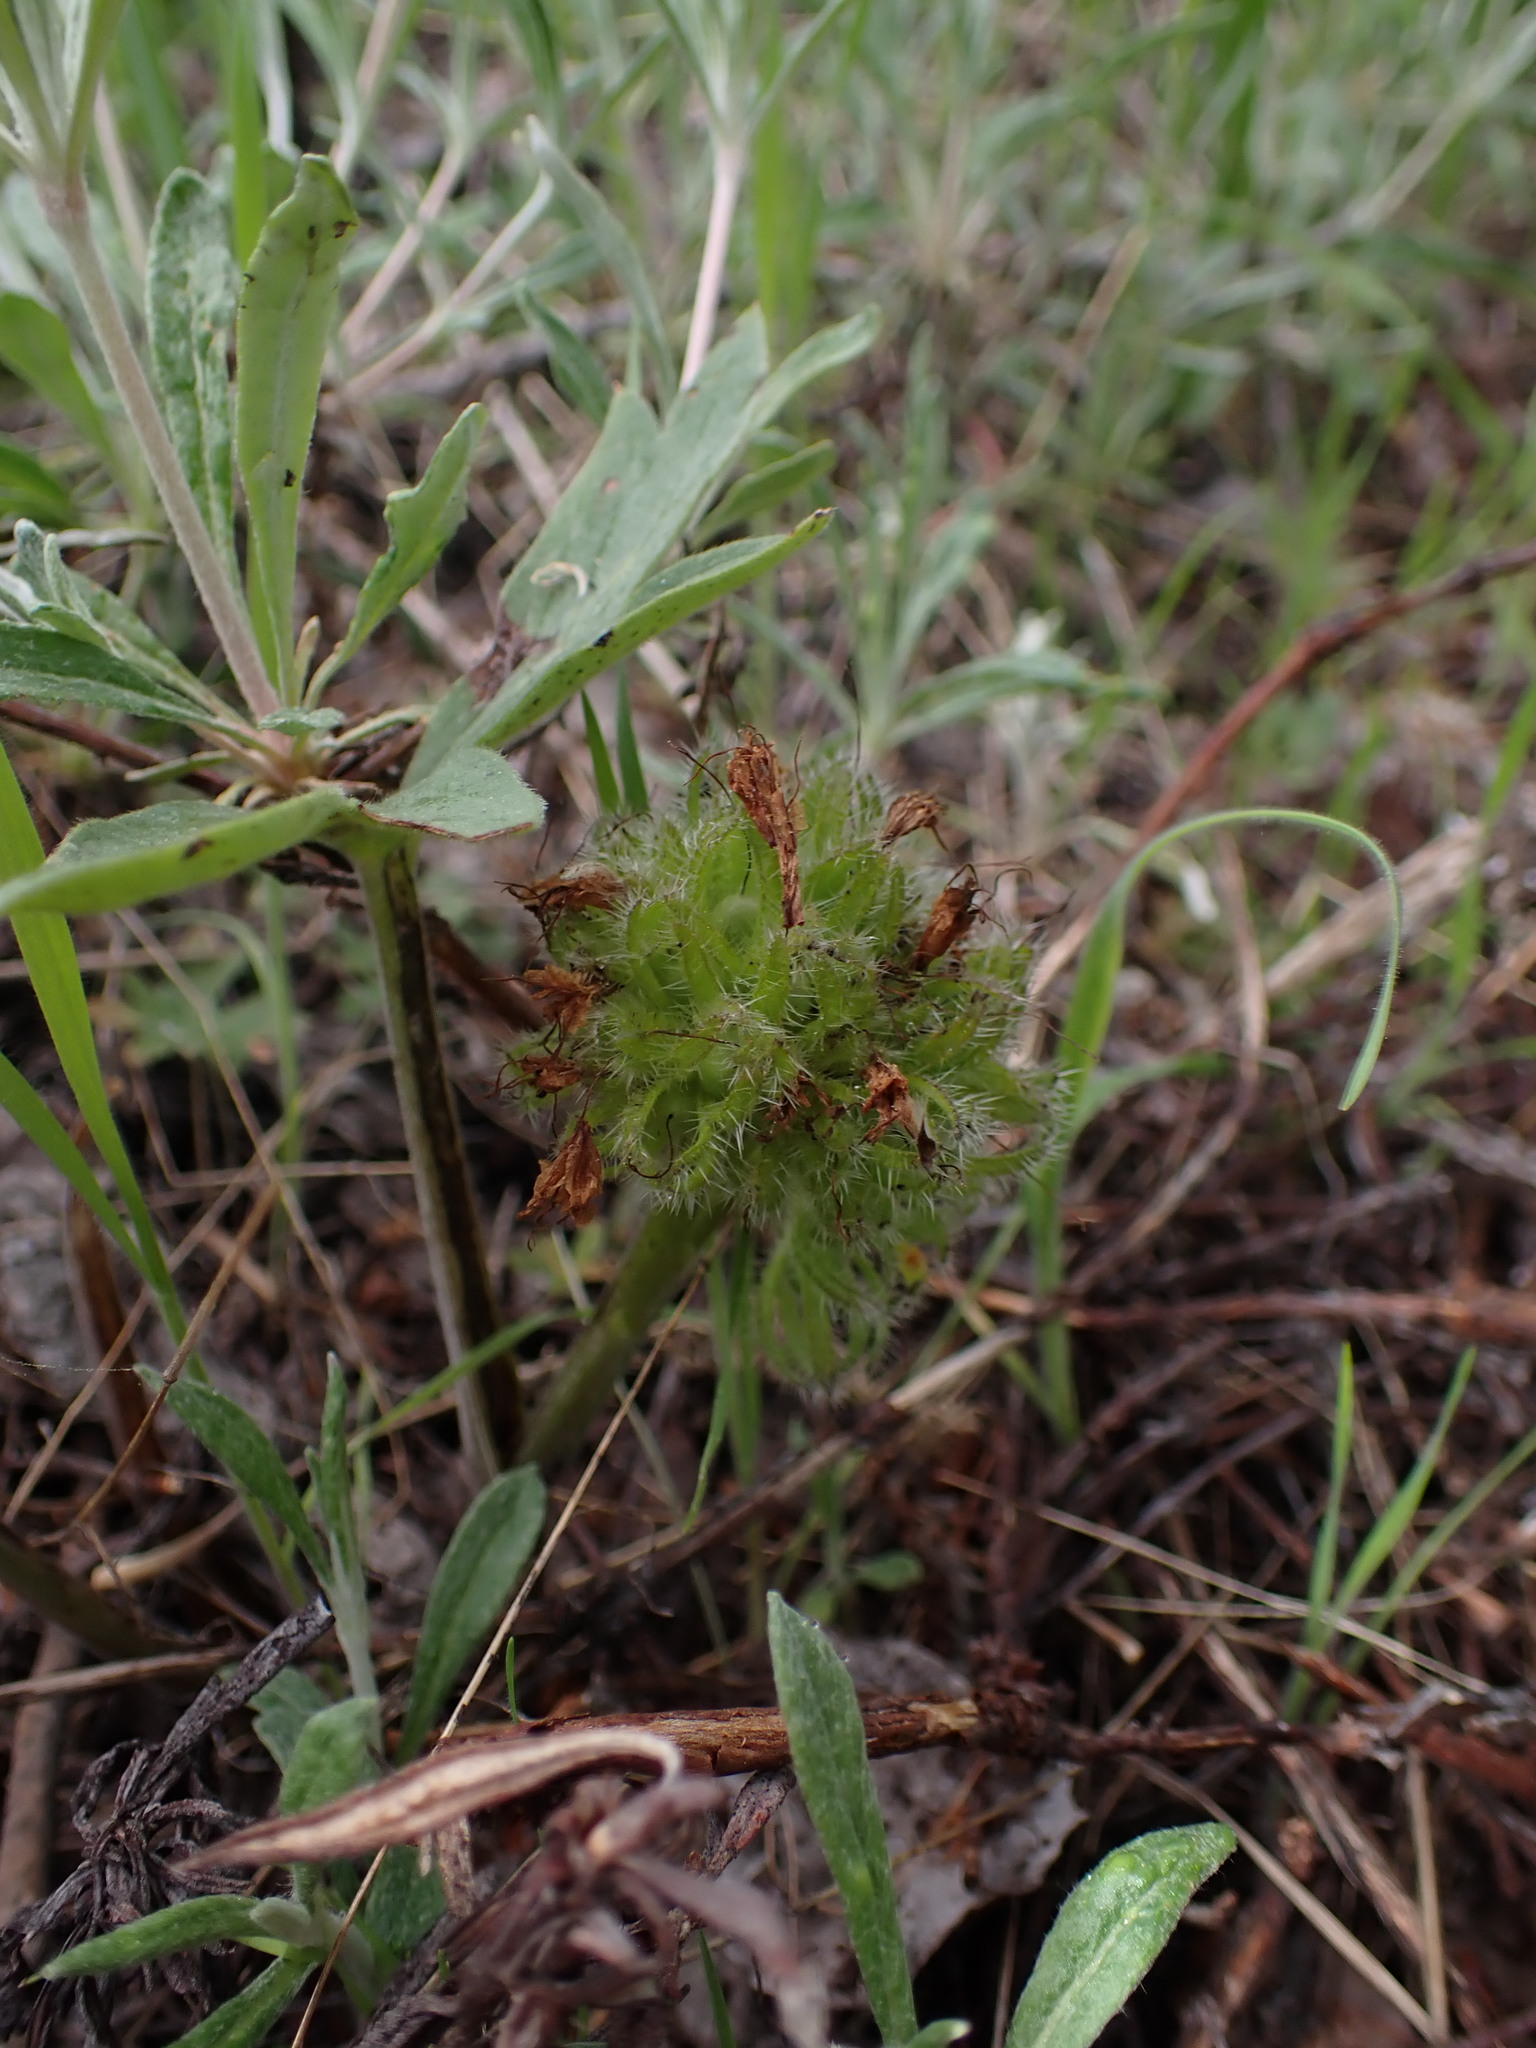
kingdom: Plantae
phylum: Tracheophyta
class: Magnoliopsida
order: Boraginales
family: Hydrophyllaceae
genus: Hydrophyllum
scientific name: Hydrophyllum capitatum
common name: Woollen-breeches
